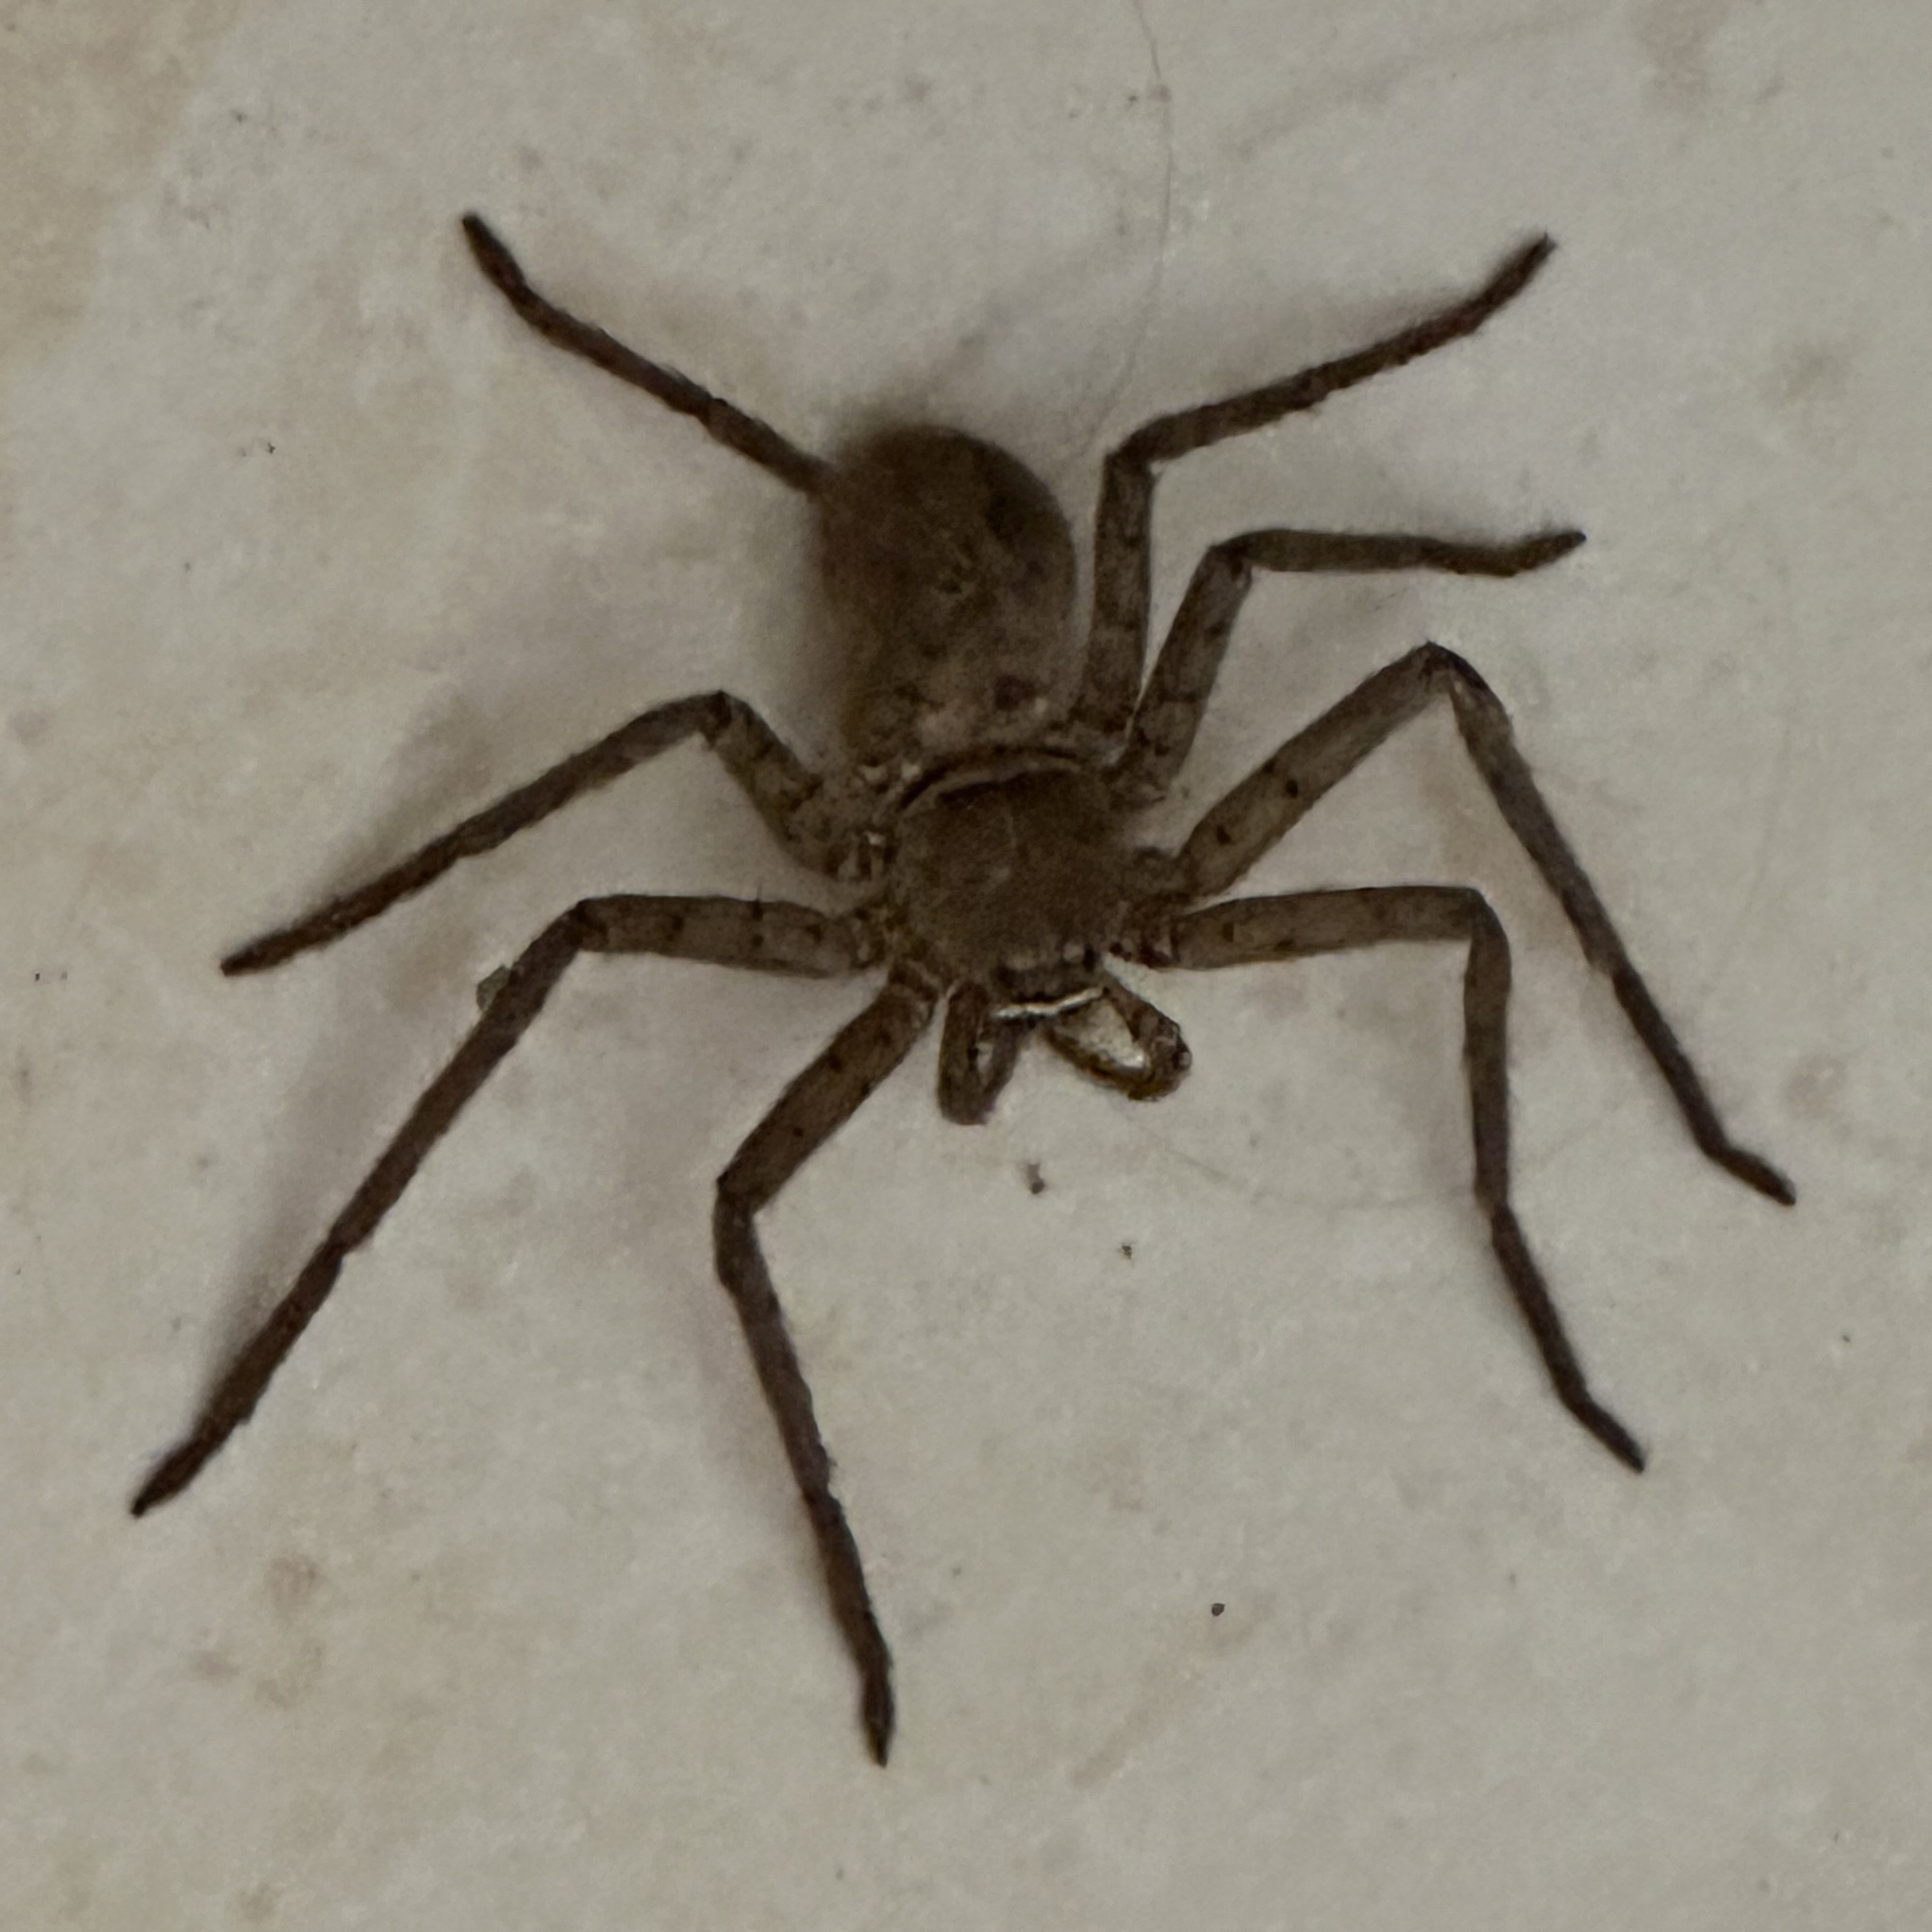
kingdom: Animalia
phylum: Arthropoda
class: Arachnida
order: Araneae
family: Sparassidae
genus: Heteropoda
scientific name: Heteropoda venatoria
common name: Huntsman spider
